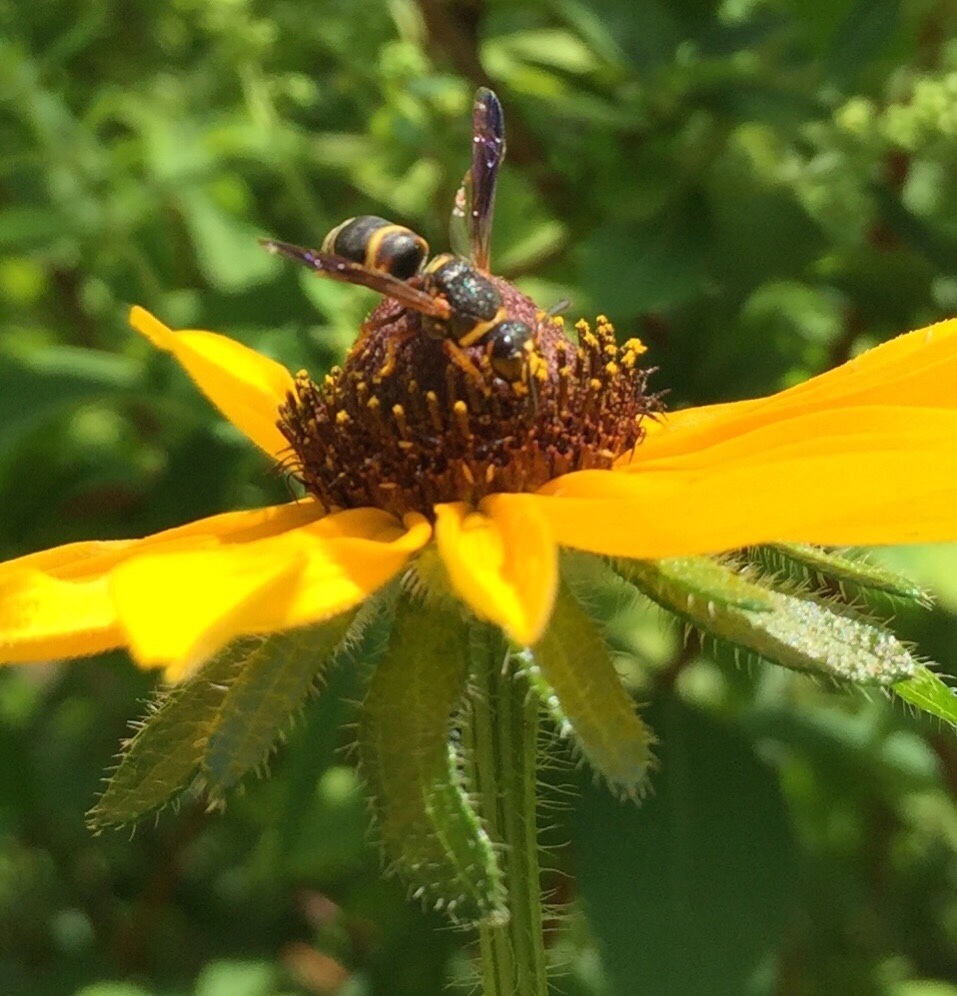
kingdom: Animalia
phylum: Arthropoda
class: Insecta
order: Hymenoptera
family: Eumenidae
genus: Euodynerus
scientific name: Euodynerus hidalgo
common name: Wasp
